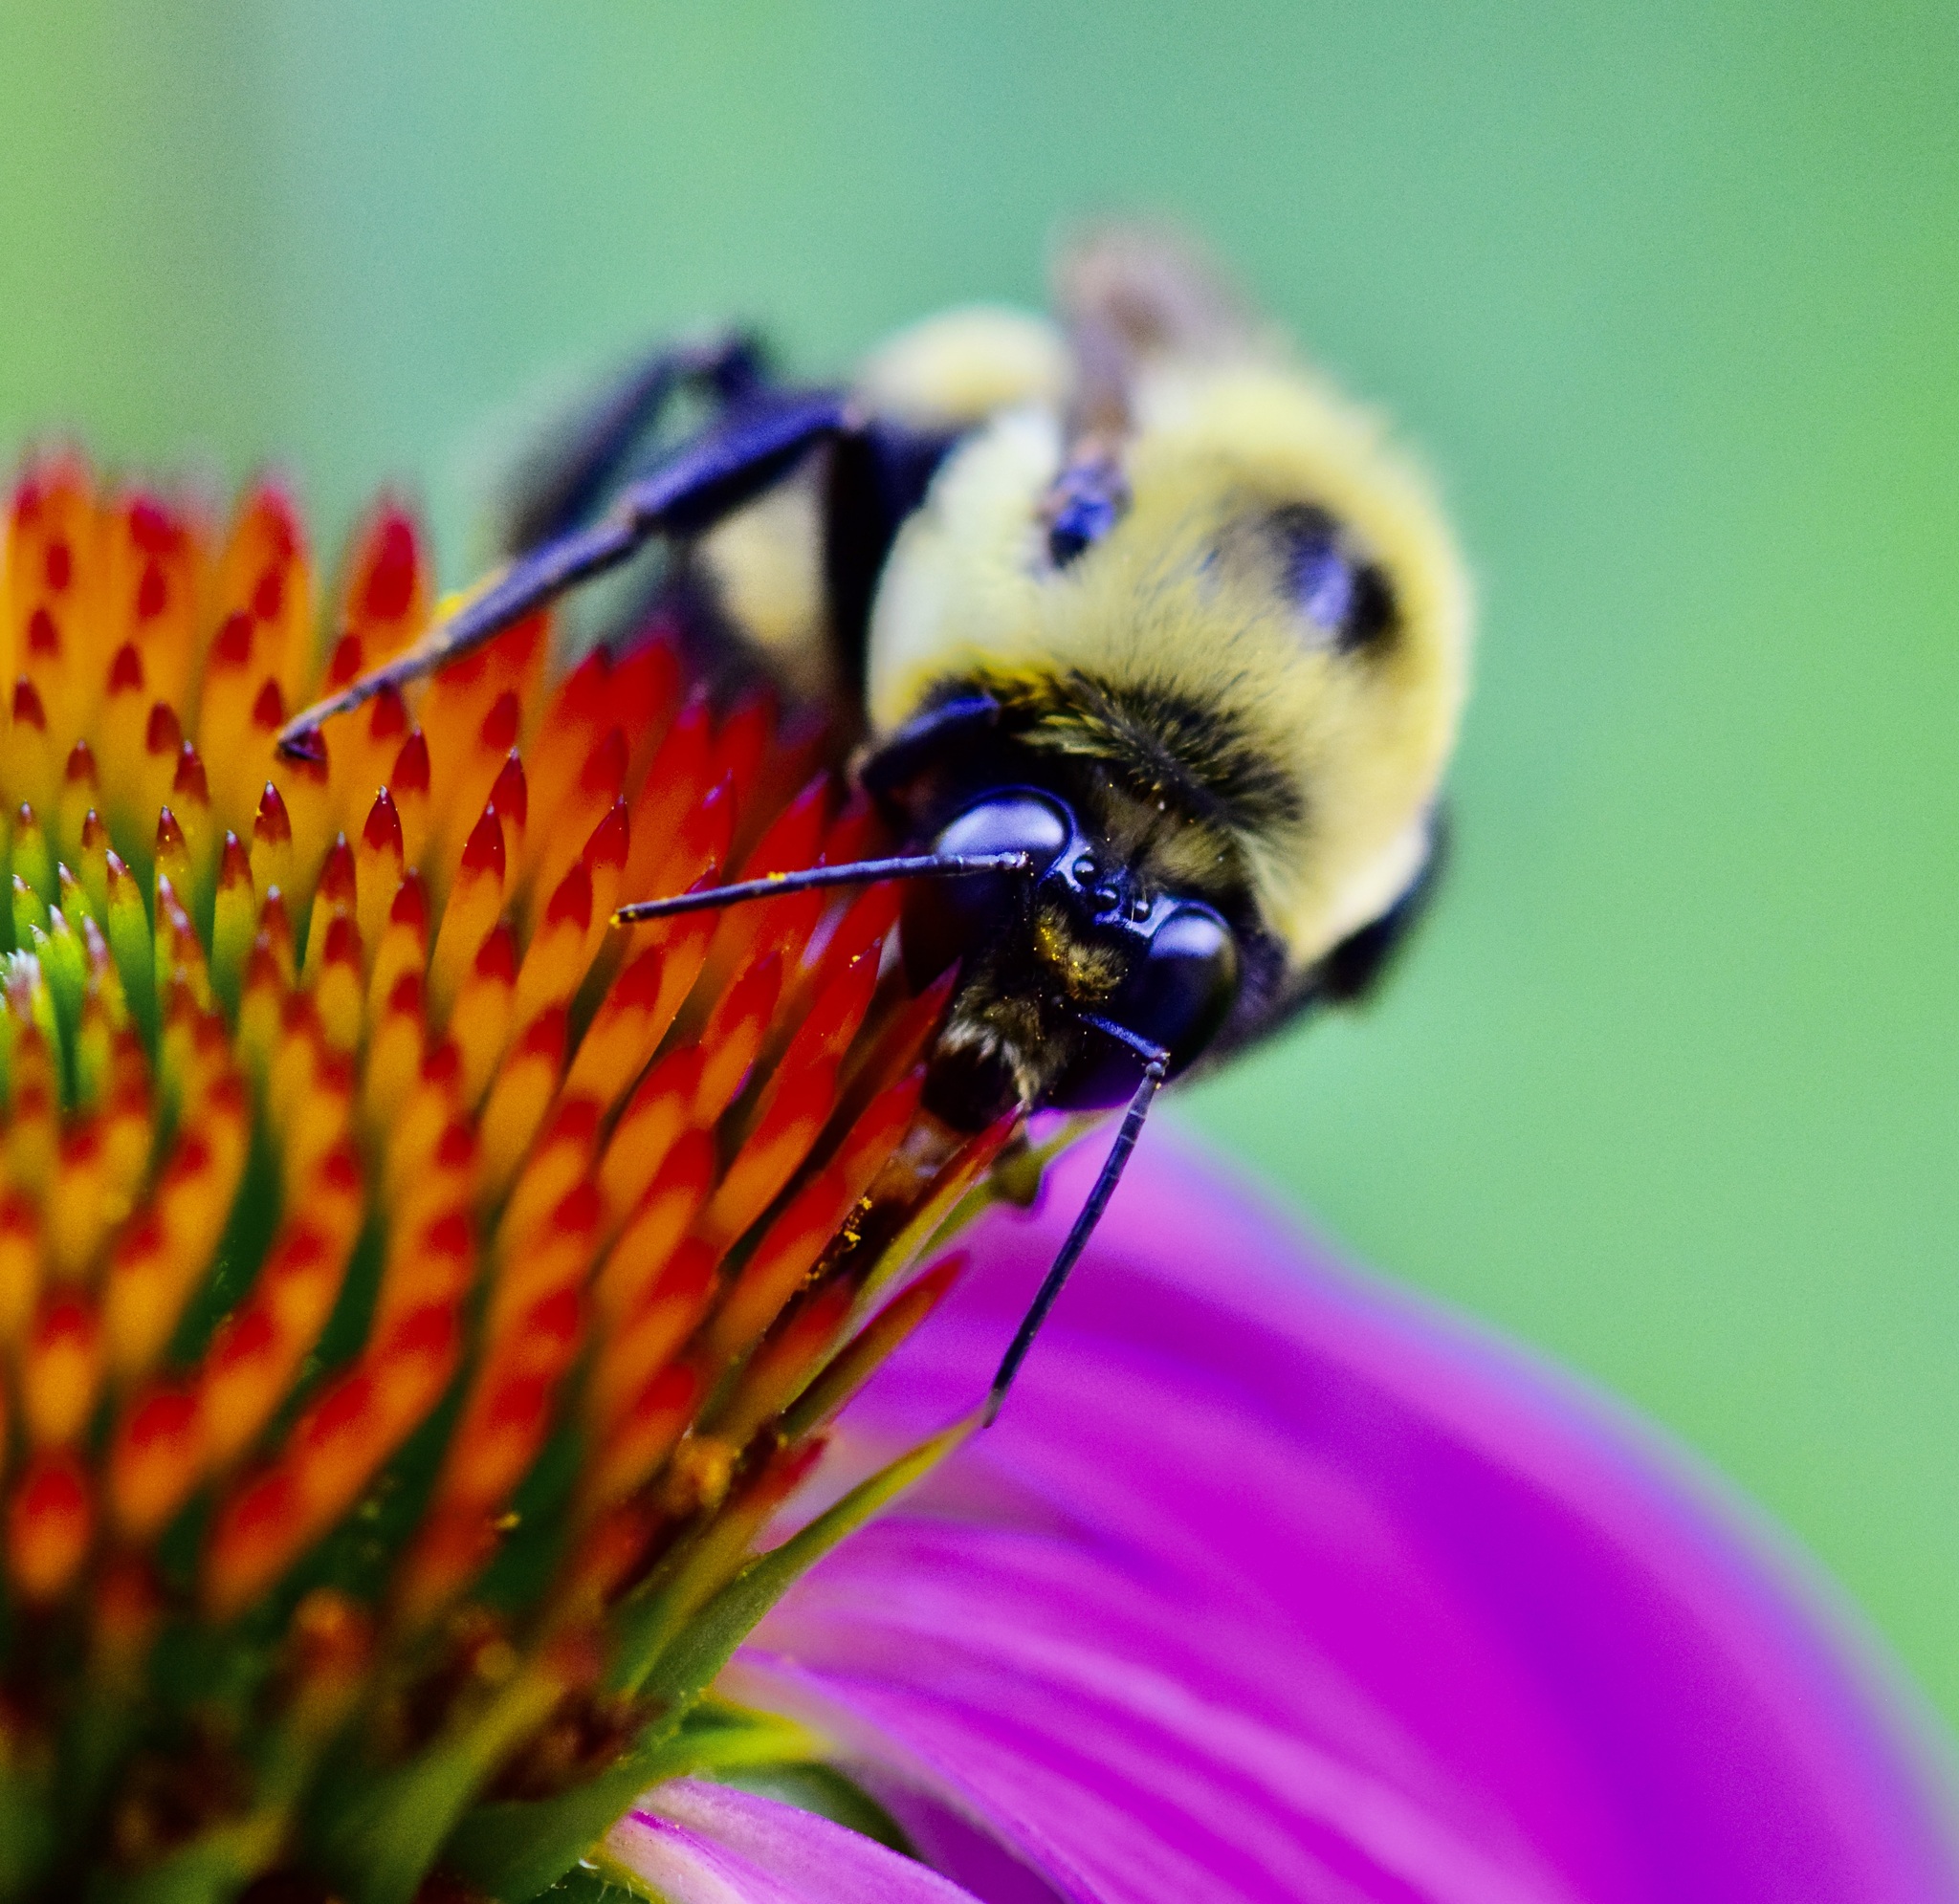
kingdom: Animalia
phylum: Arthropoda
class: Insecta
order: Hymenoptera
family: Apidae
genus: Bombus
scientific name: Bombus griseocollis
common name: Brown-belted bumble bee
